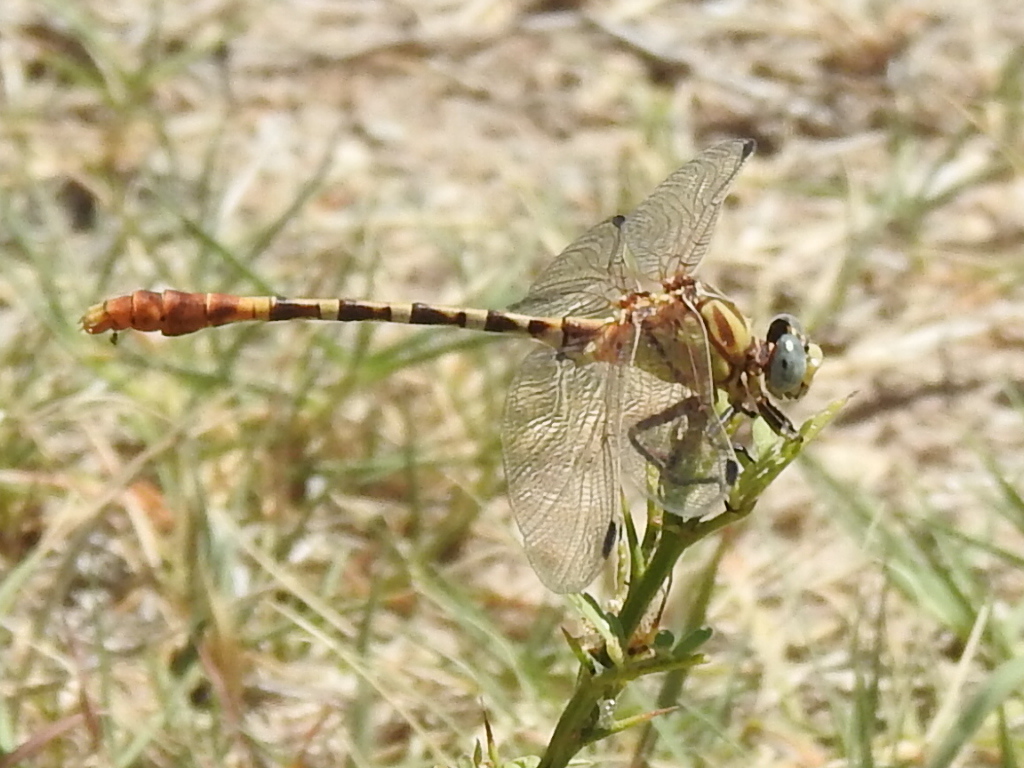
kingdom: Animalia
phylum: Arthropoda
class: Insecta
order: Odonata
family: Gomphidae
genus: Erpetogomphus
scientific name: Erpetogomphus designatus
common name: Eastern ringtail
